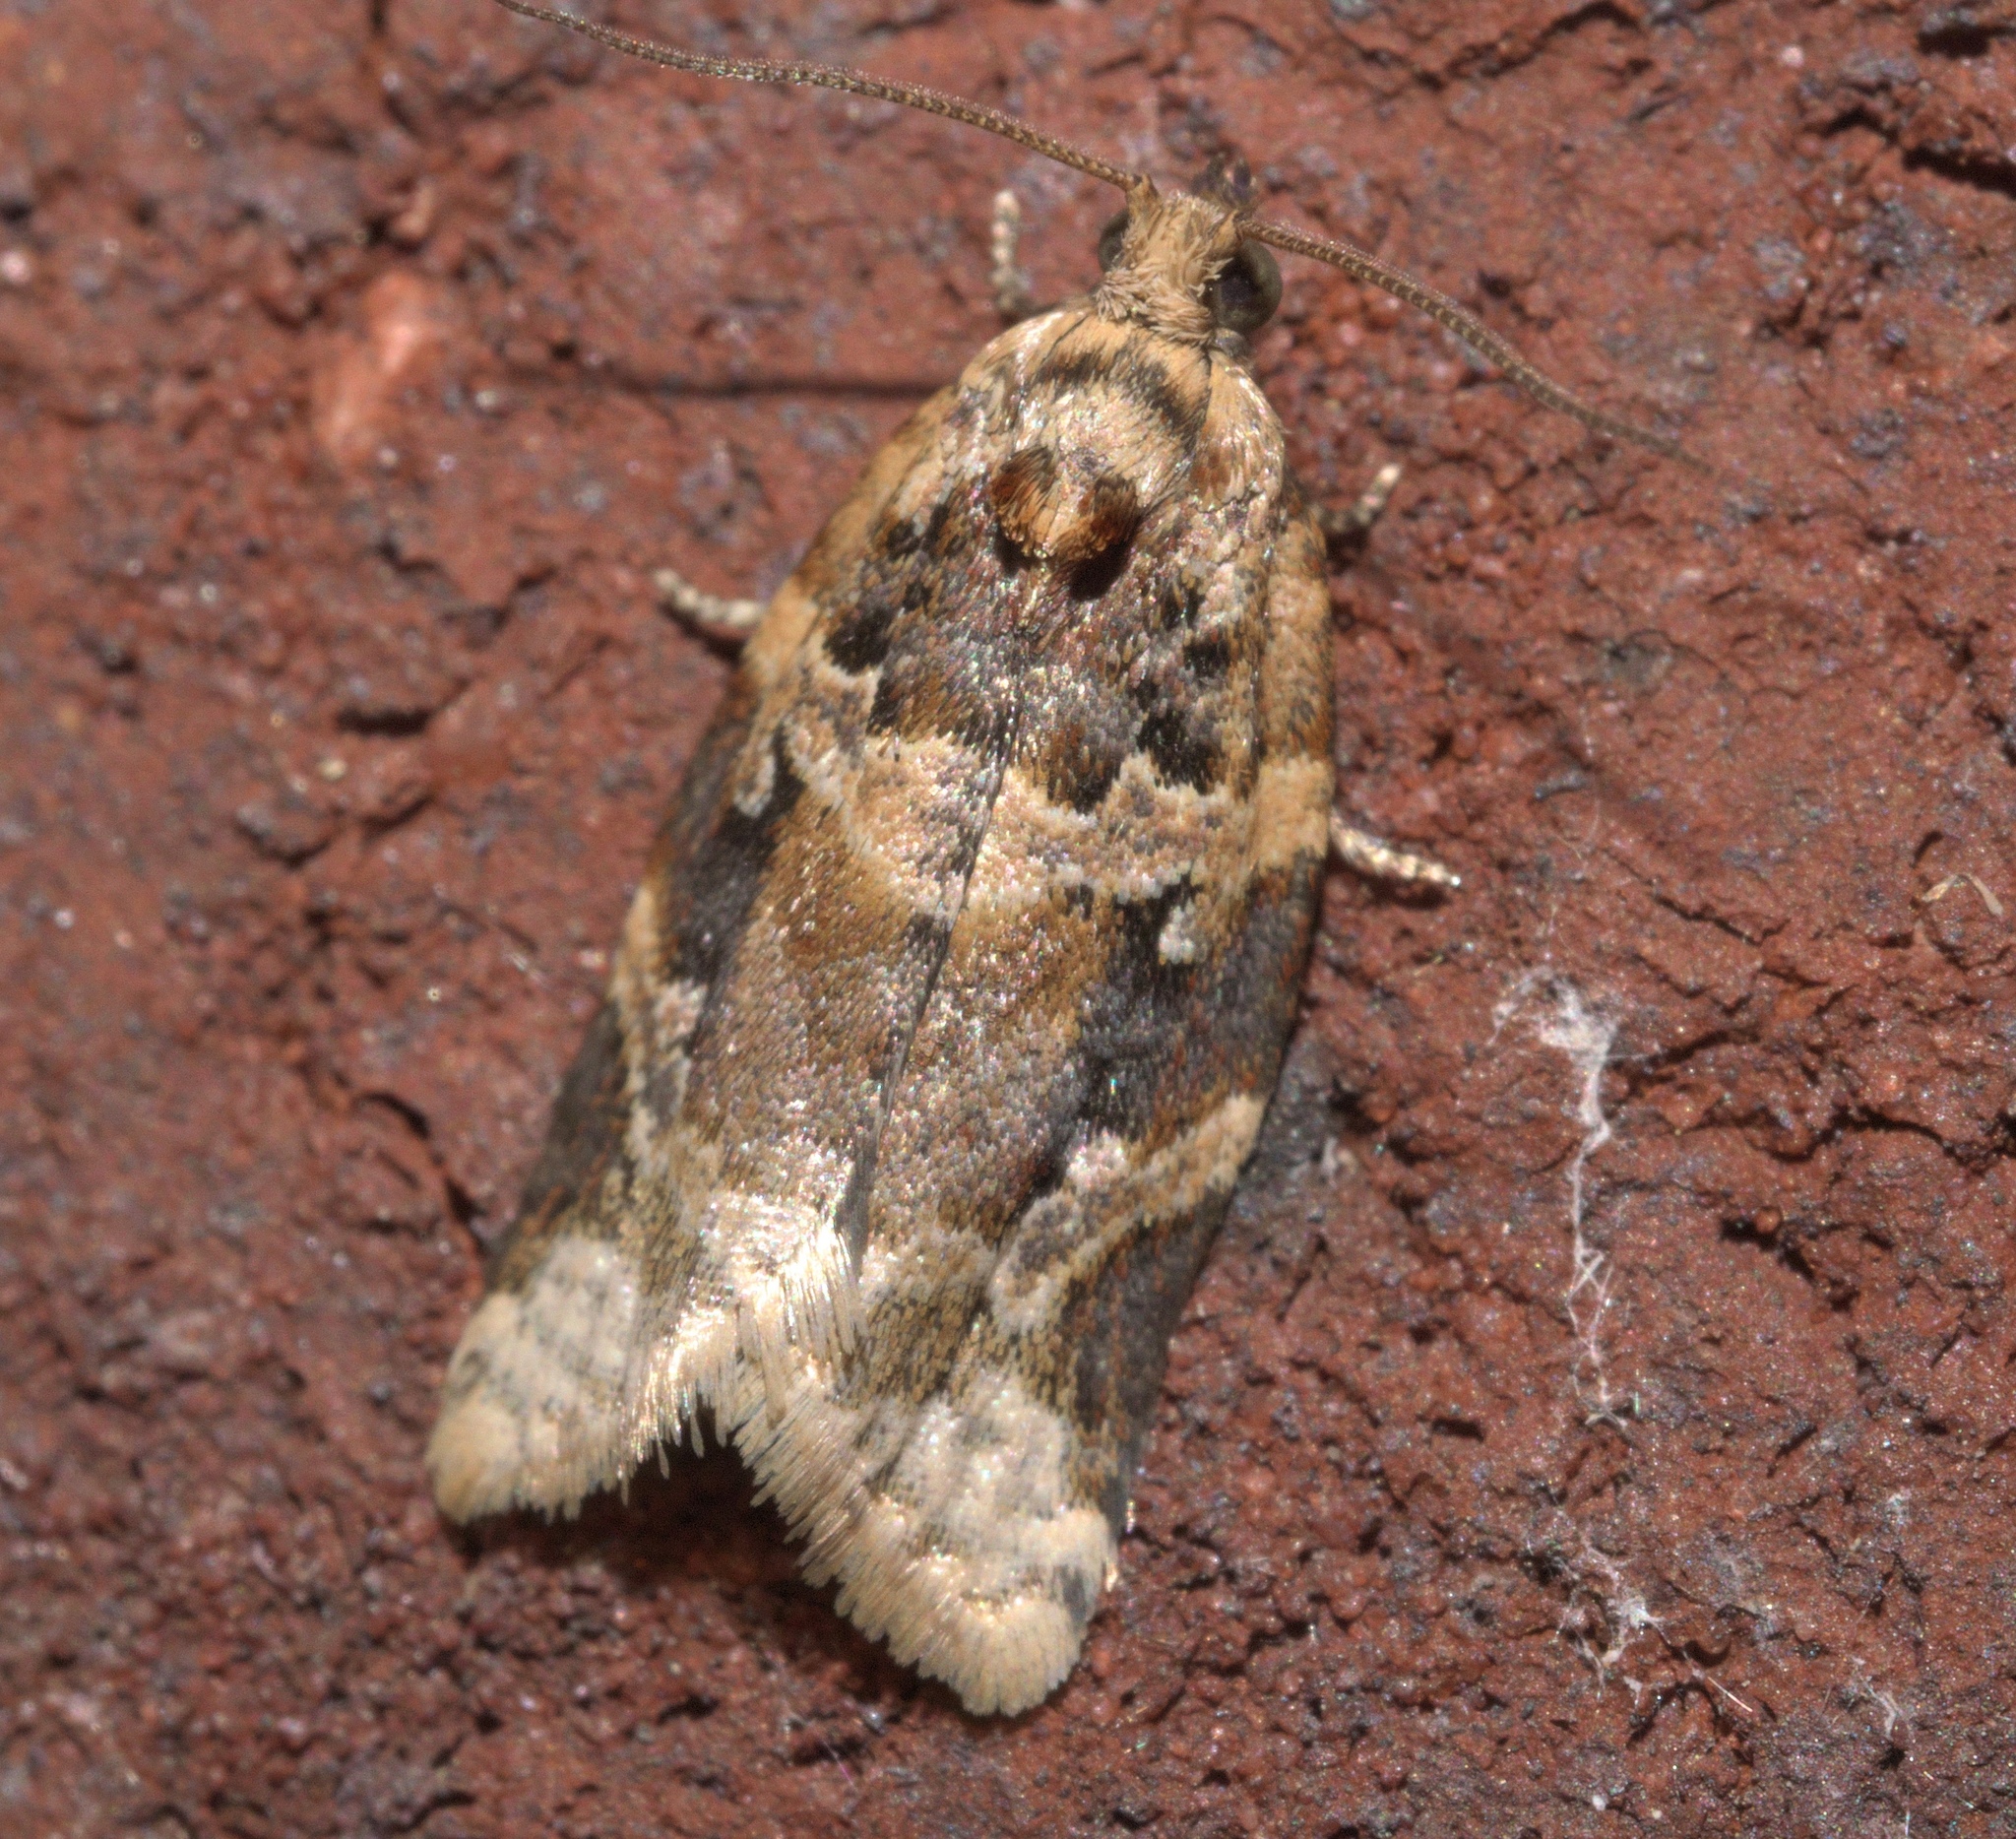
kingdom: Animalia
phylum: Arthropoda
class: Insecta
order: Lepidoptera
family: Tortricidae
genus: Argyrotaenia
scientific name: Argyrotaenia velutinana
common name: Red-banded leafroller moth
